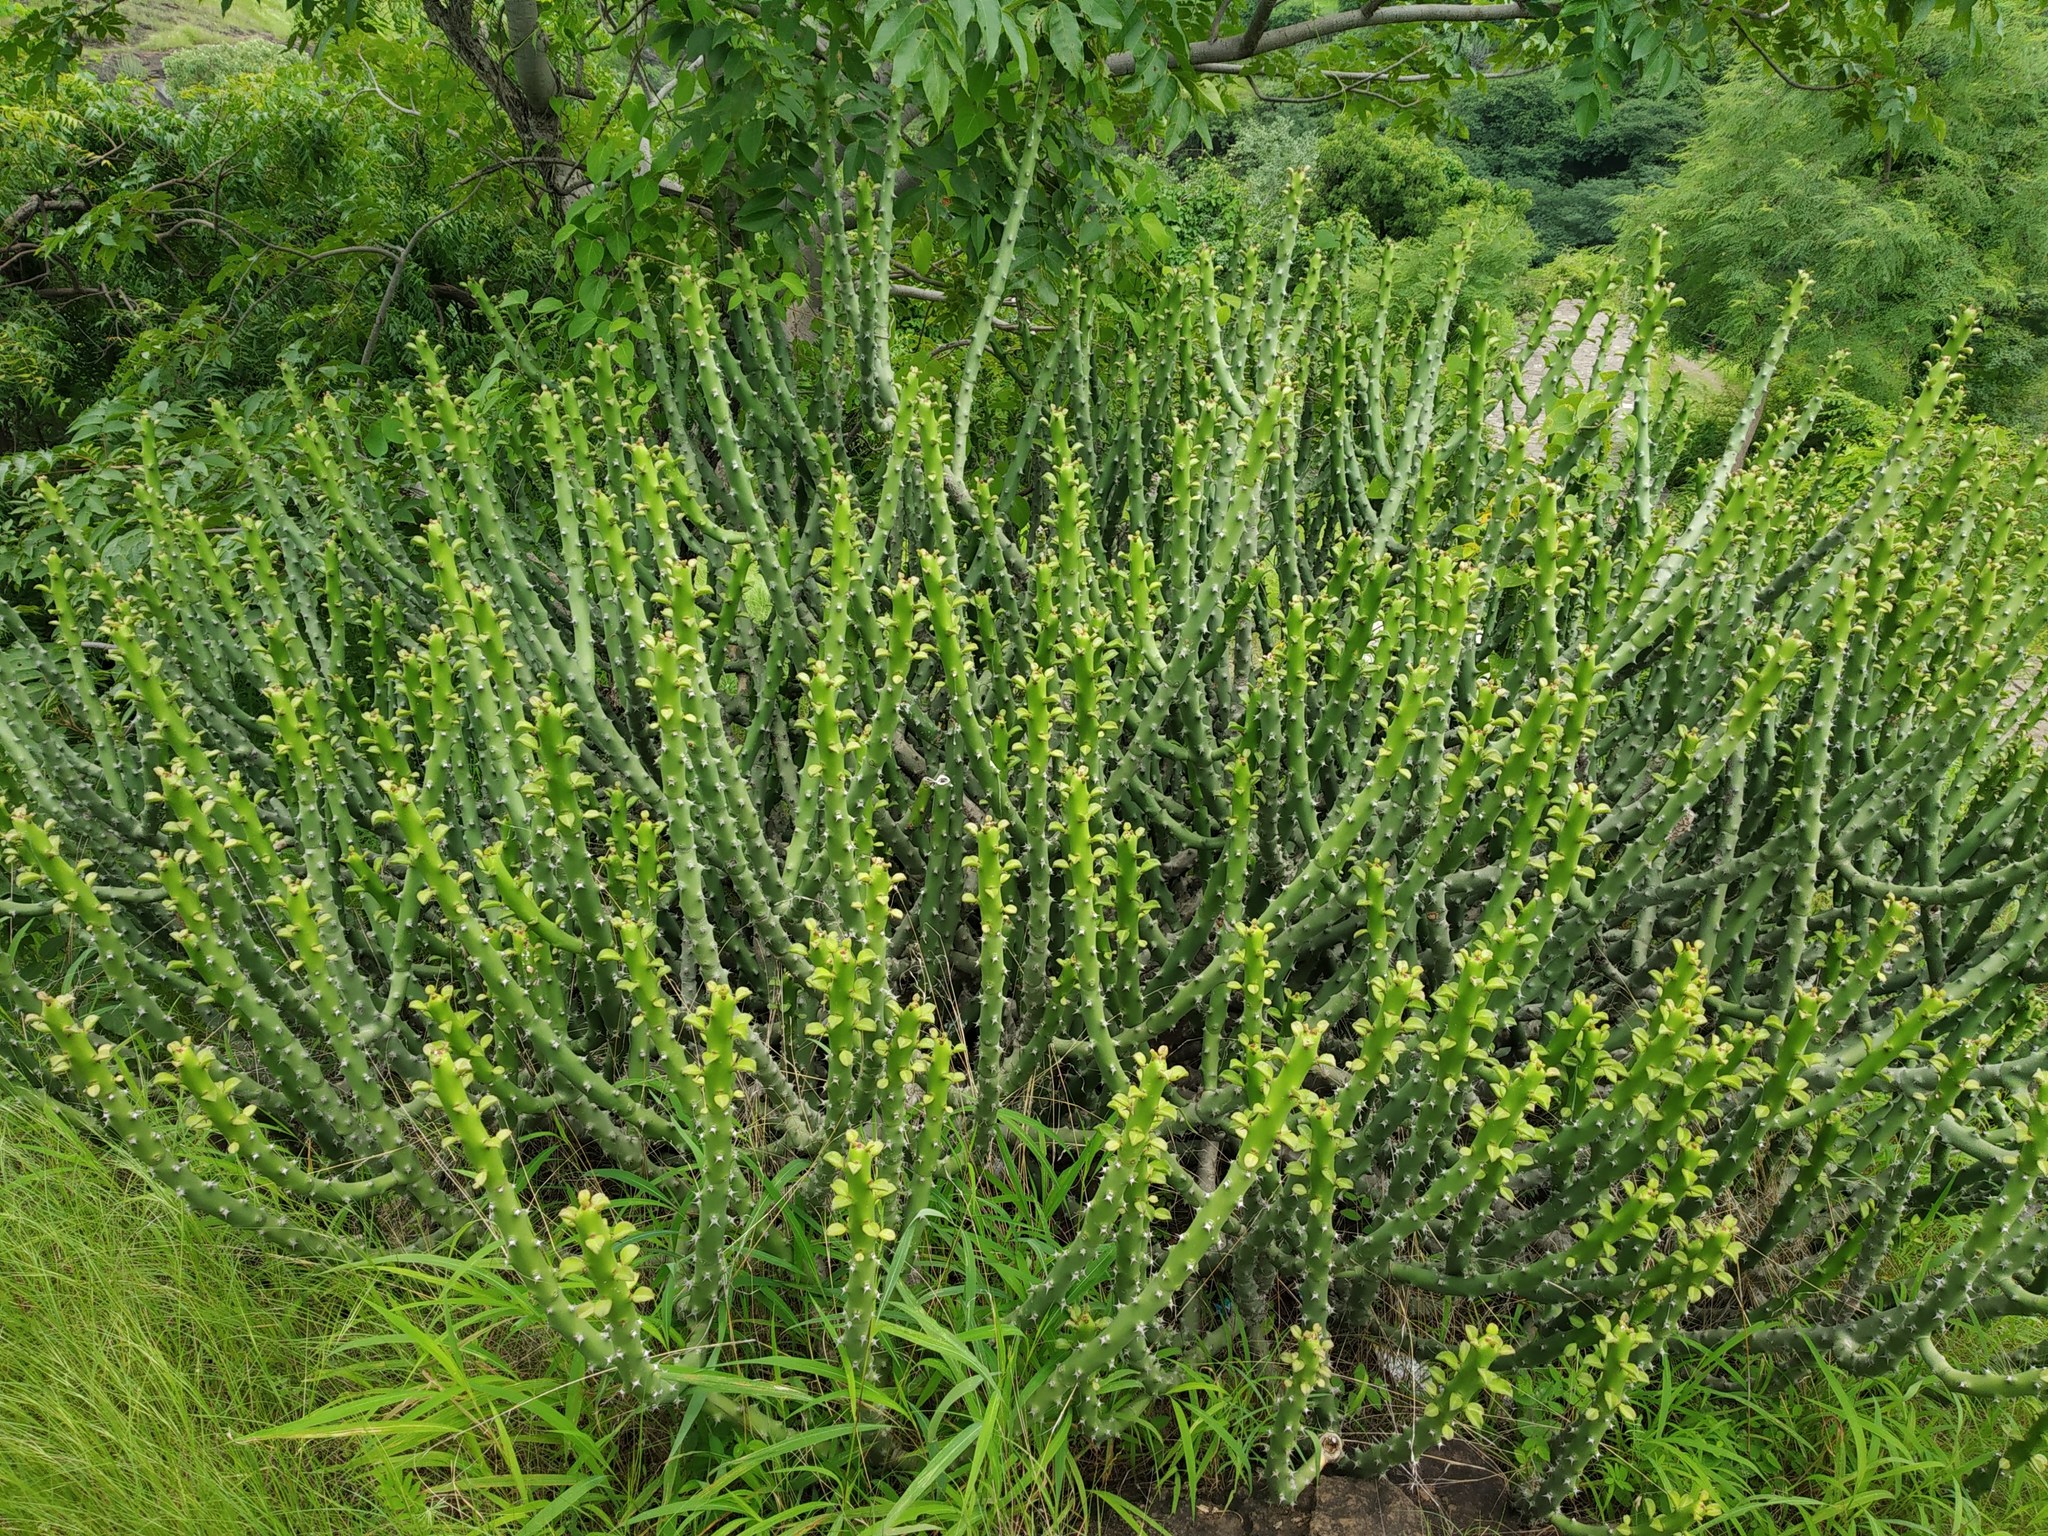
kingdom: Plantae
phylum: Tracheophyta
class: Magnoliopsida
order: Malpighiales
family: Euphorbiaceae
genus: Euphorbia
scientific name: Euphorbia caducifolia
